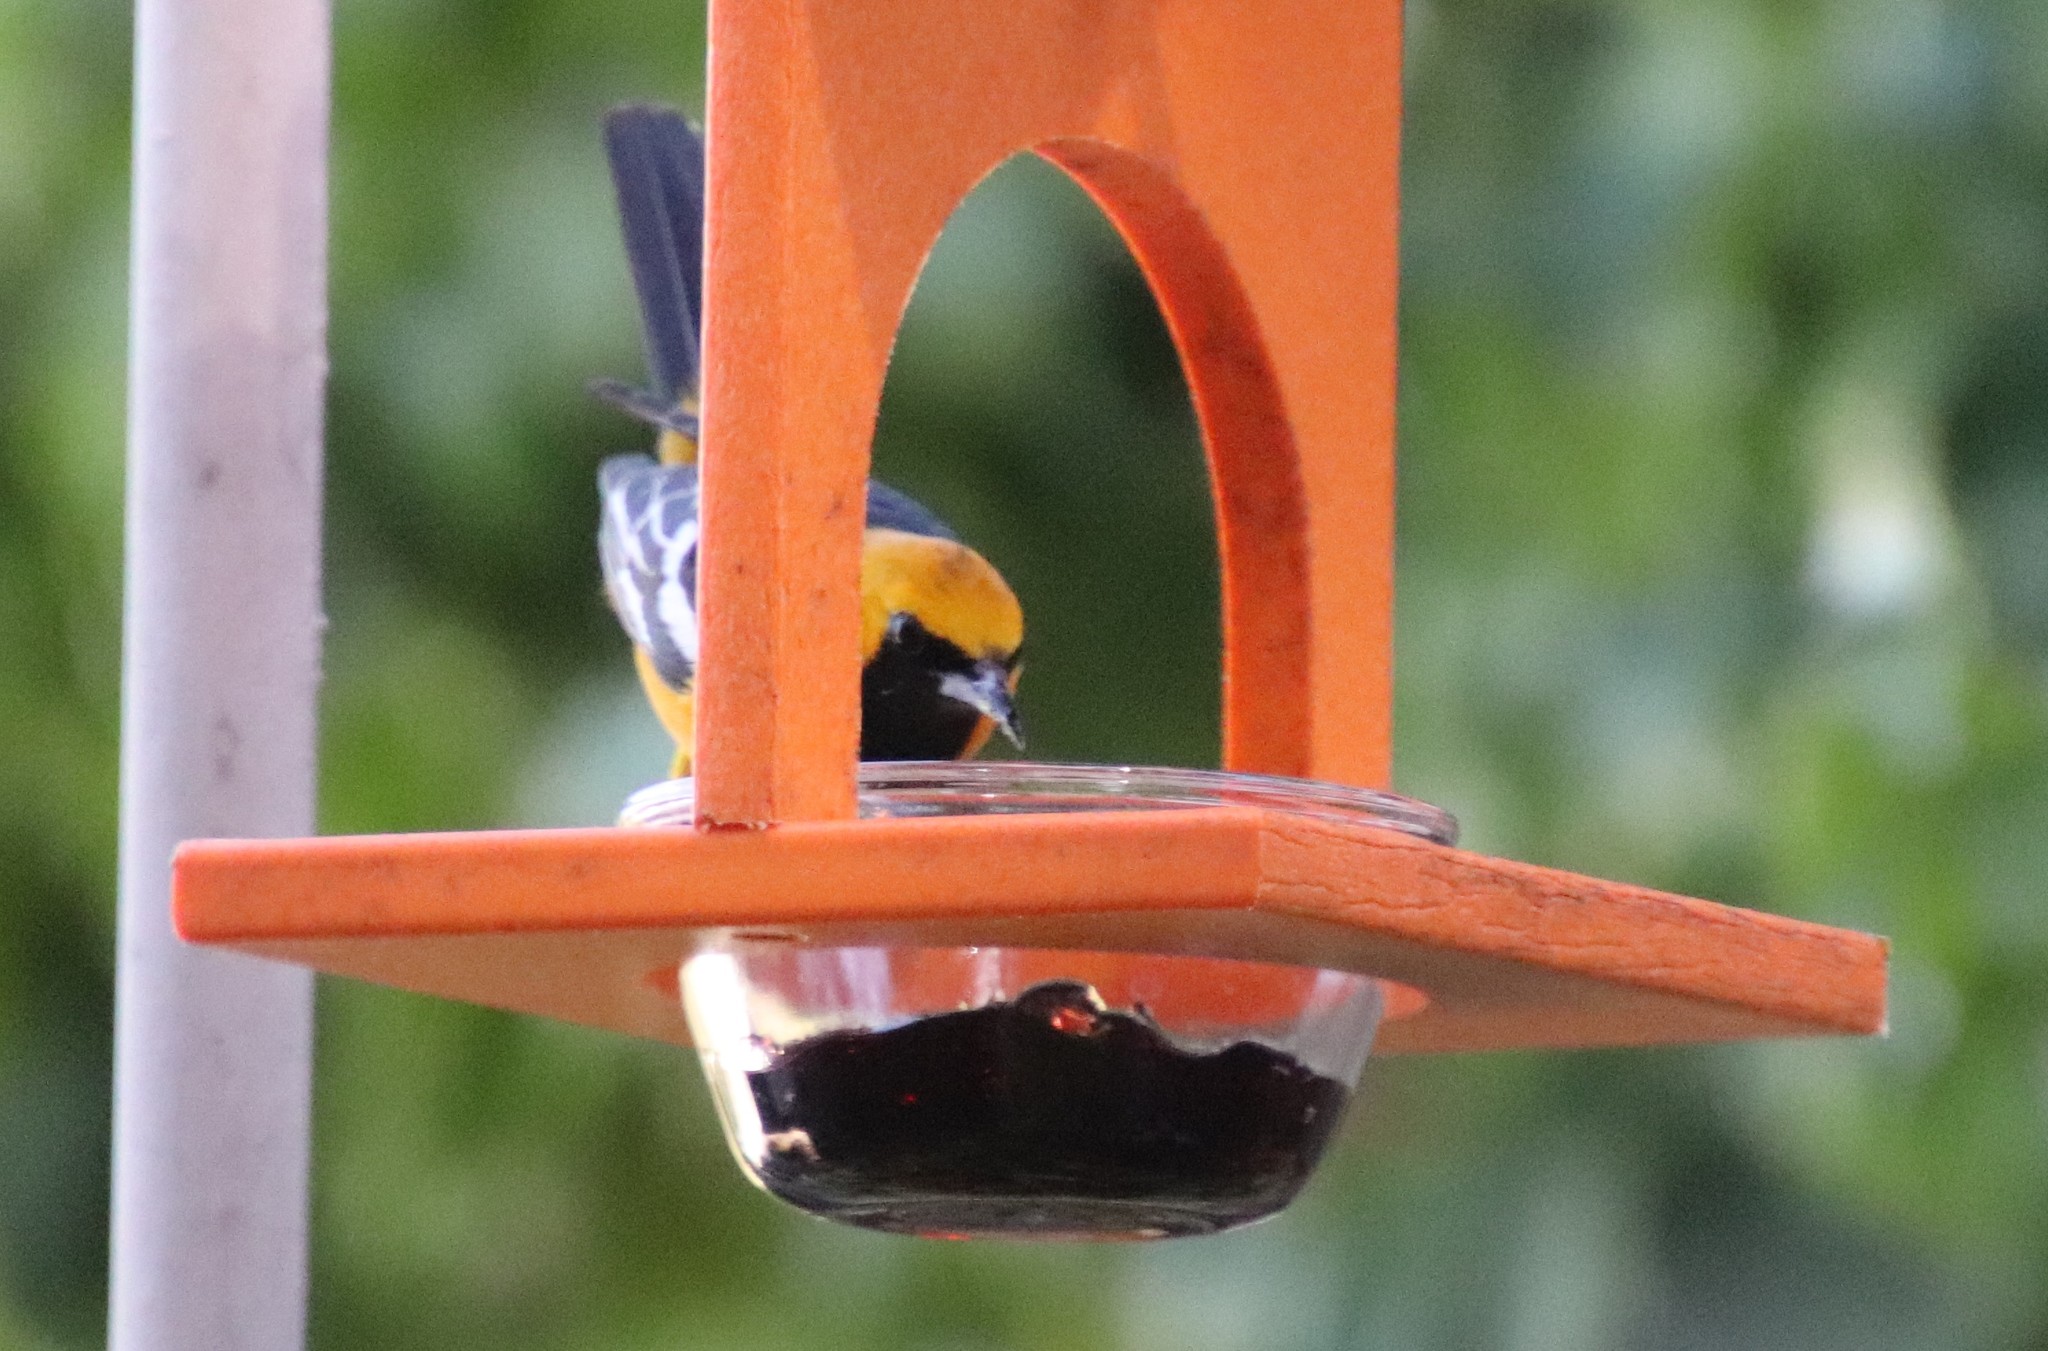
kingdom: Animalia
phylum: Chordata
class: Aves
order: Passeriformes
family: Icteridae
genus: Icterus
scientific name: Icterus cucullatus
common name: Hooded oriole
